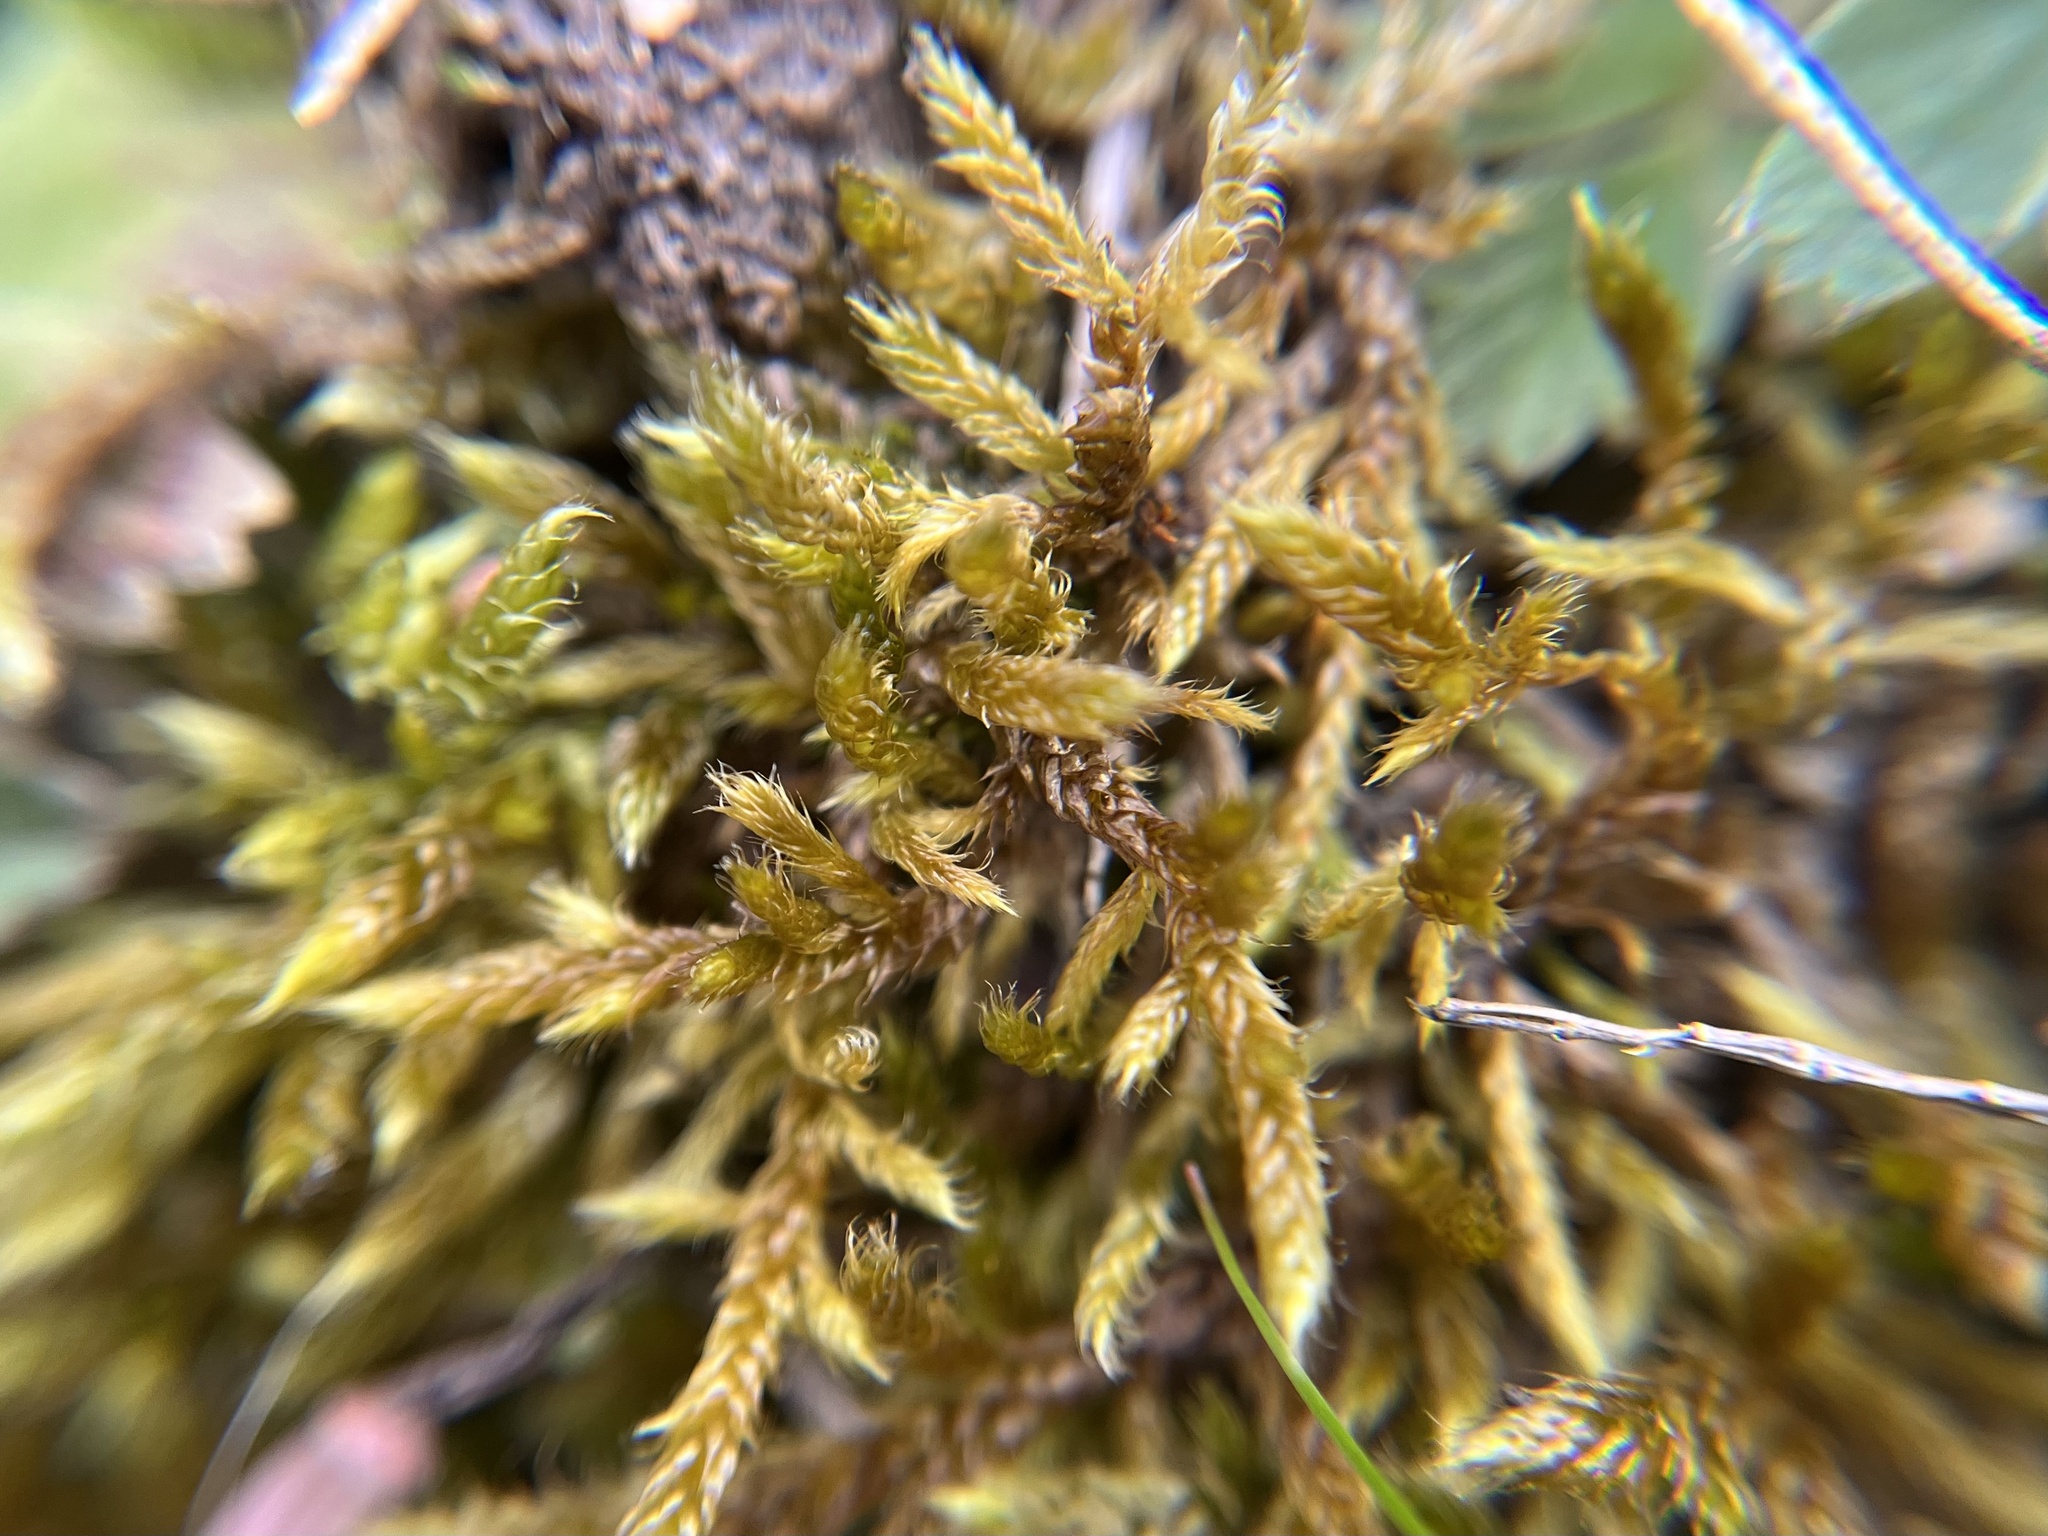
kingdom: Plantae
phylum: Bryophyta
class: Bryopsida
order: Hypnales
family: Hypnaceae
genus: Hypnum
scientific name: Hypnum cupressiforme
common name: Cypress-leaved plait-moss
